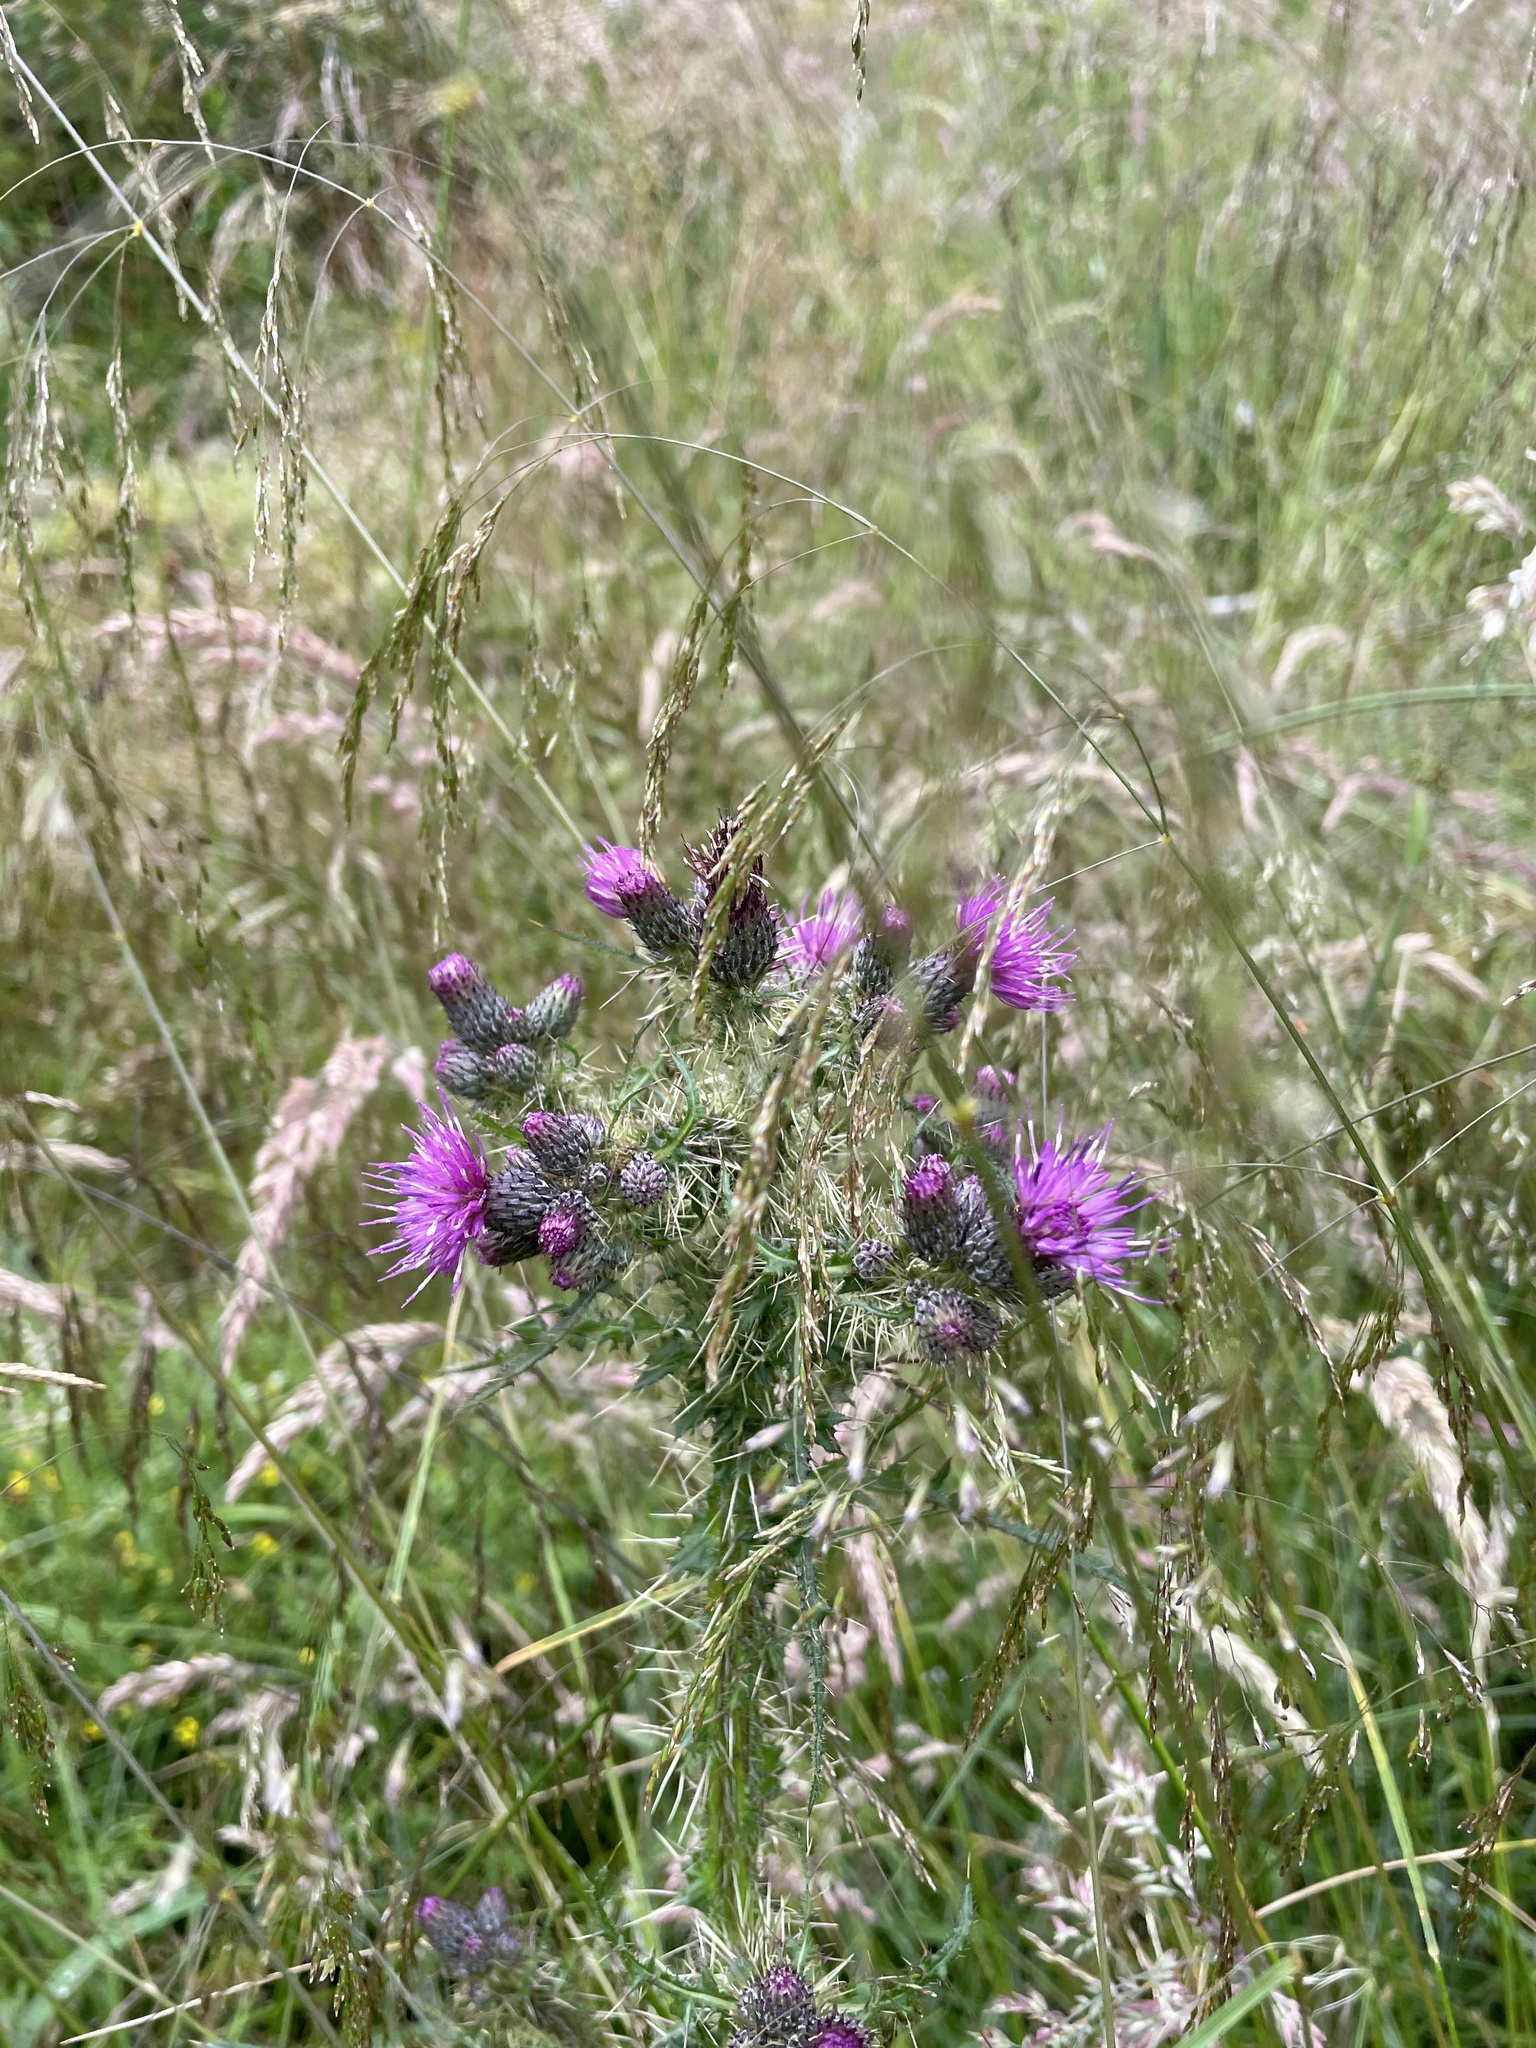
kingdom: Plantae
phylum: Tracheophyta
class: Magnoliopsida
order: Asterales
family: Asteraceae
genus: Cirsium
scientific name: Cirsium palustre
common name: Marsh thistle
